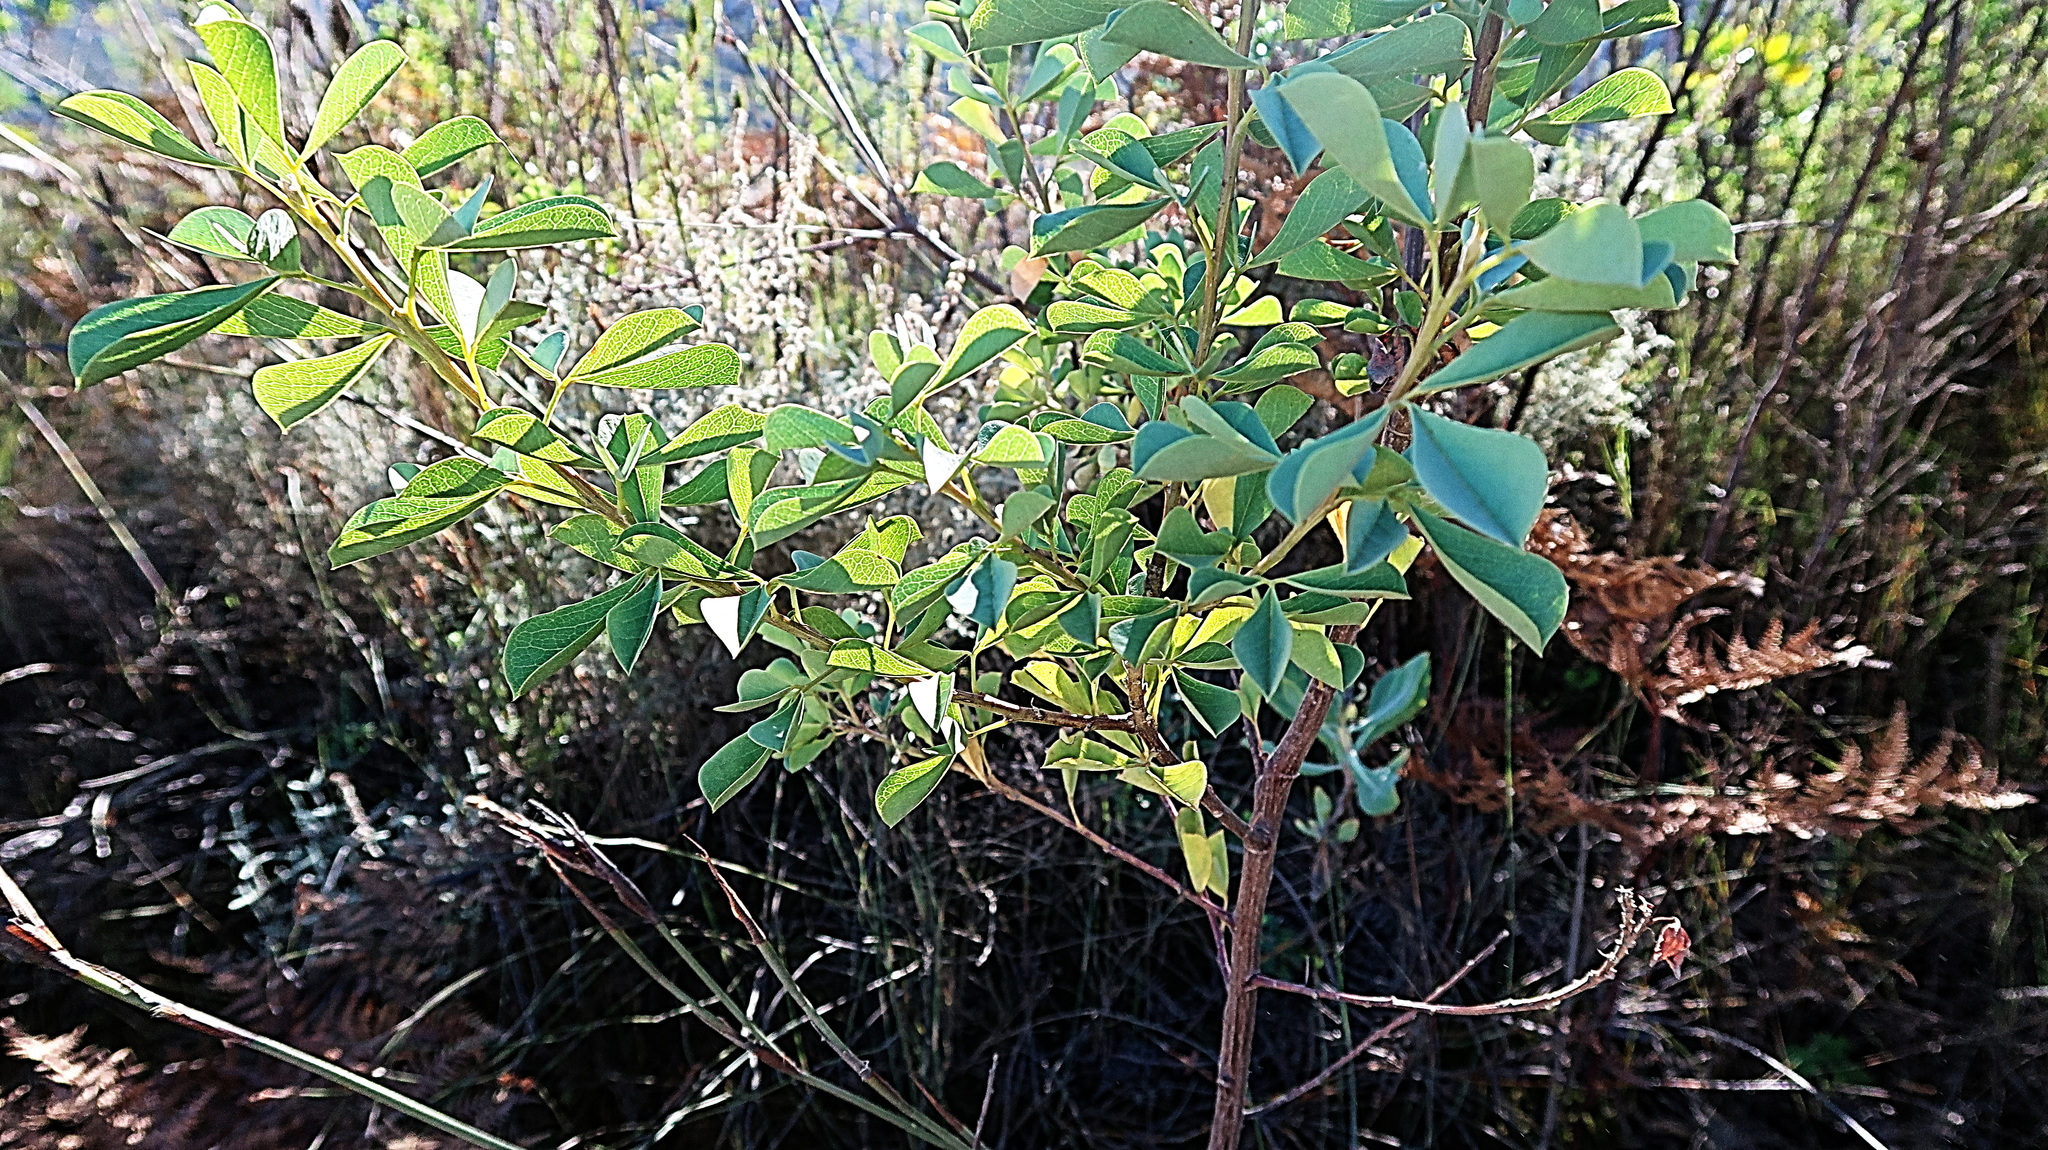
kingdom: Plantae
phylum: Tracheophyta
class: Magnoliopsida
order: Fabales
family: Fabaceae
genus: Hypocalyptus
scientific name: Hypocalyptus sophoroides
